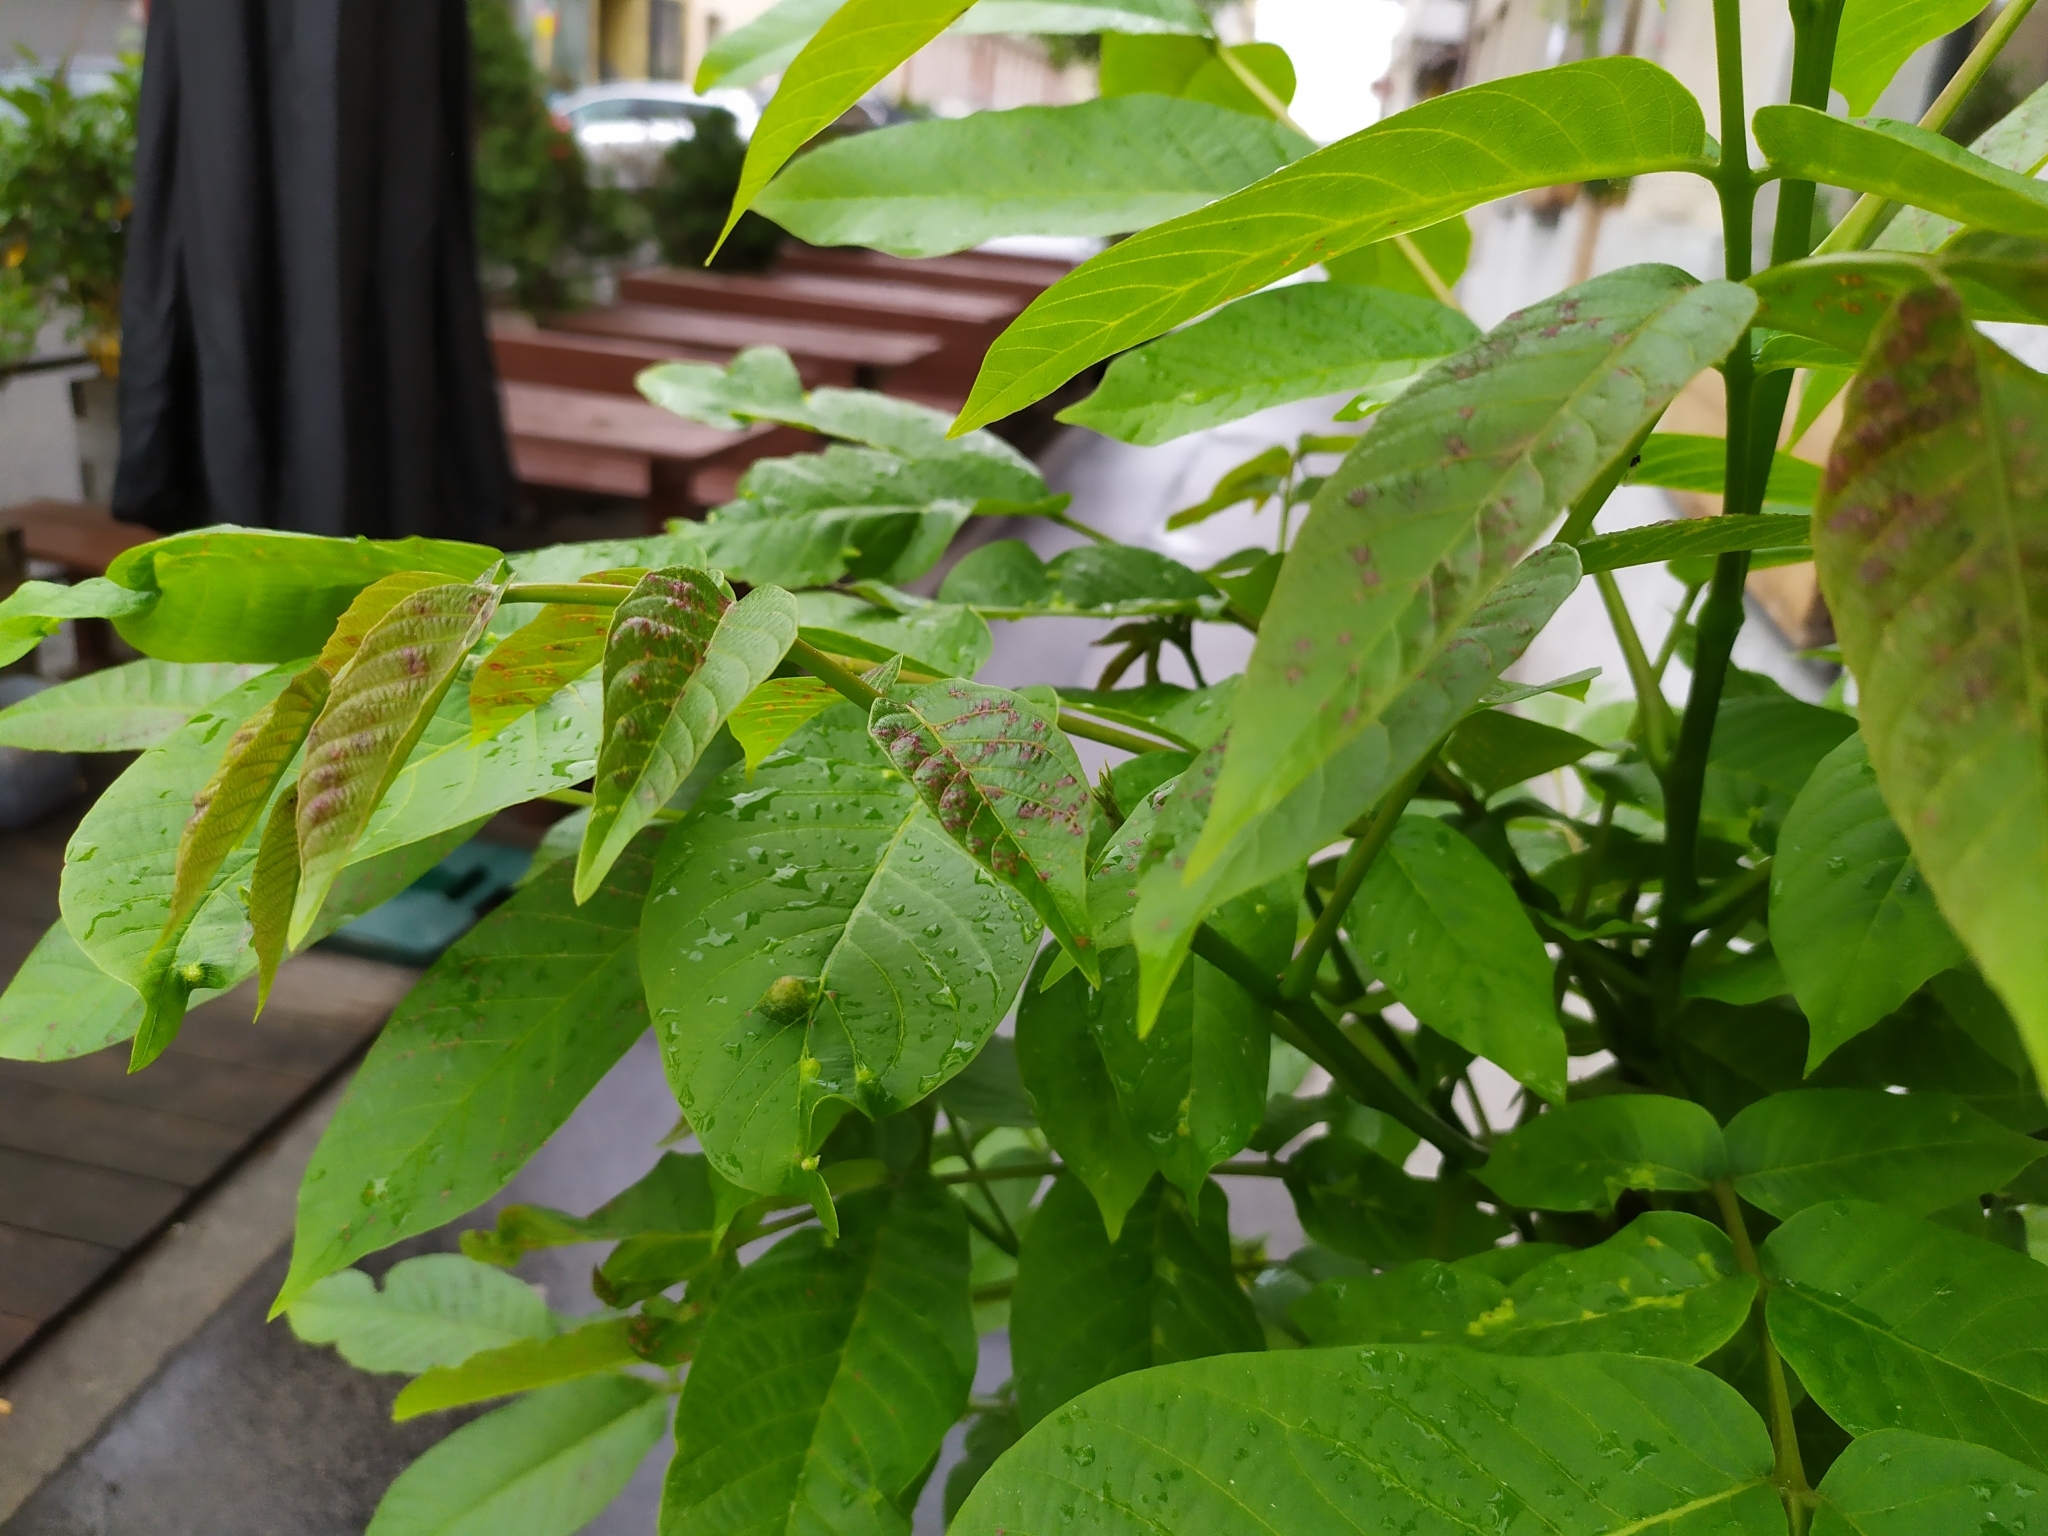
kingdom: Animalia
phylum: Arthropoda
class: Arachnida
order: Trombidiformes
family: Eriophyidae
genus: Aceria
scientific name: Aceria erinea
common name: Persian walnut erineum mite
